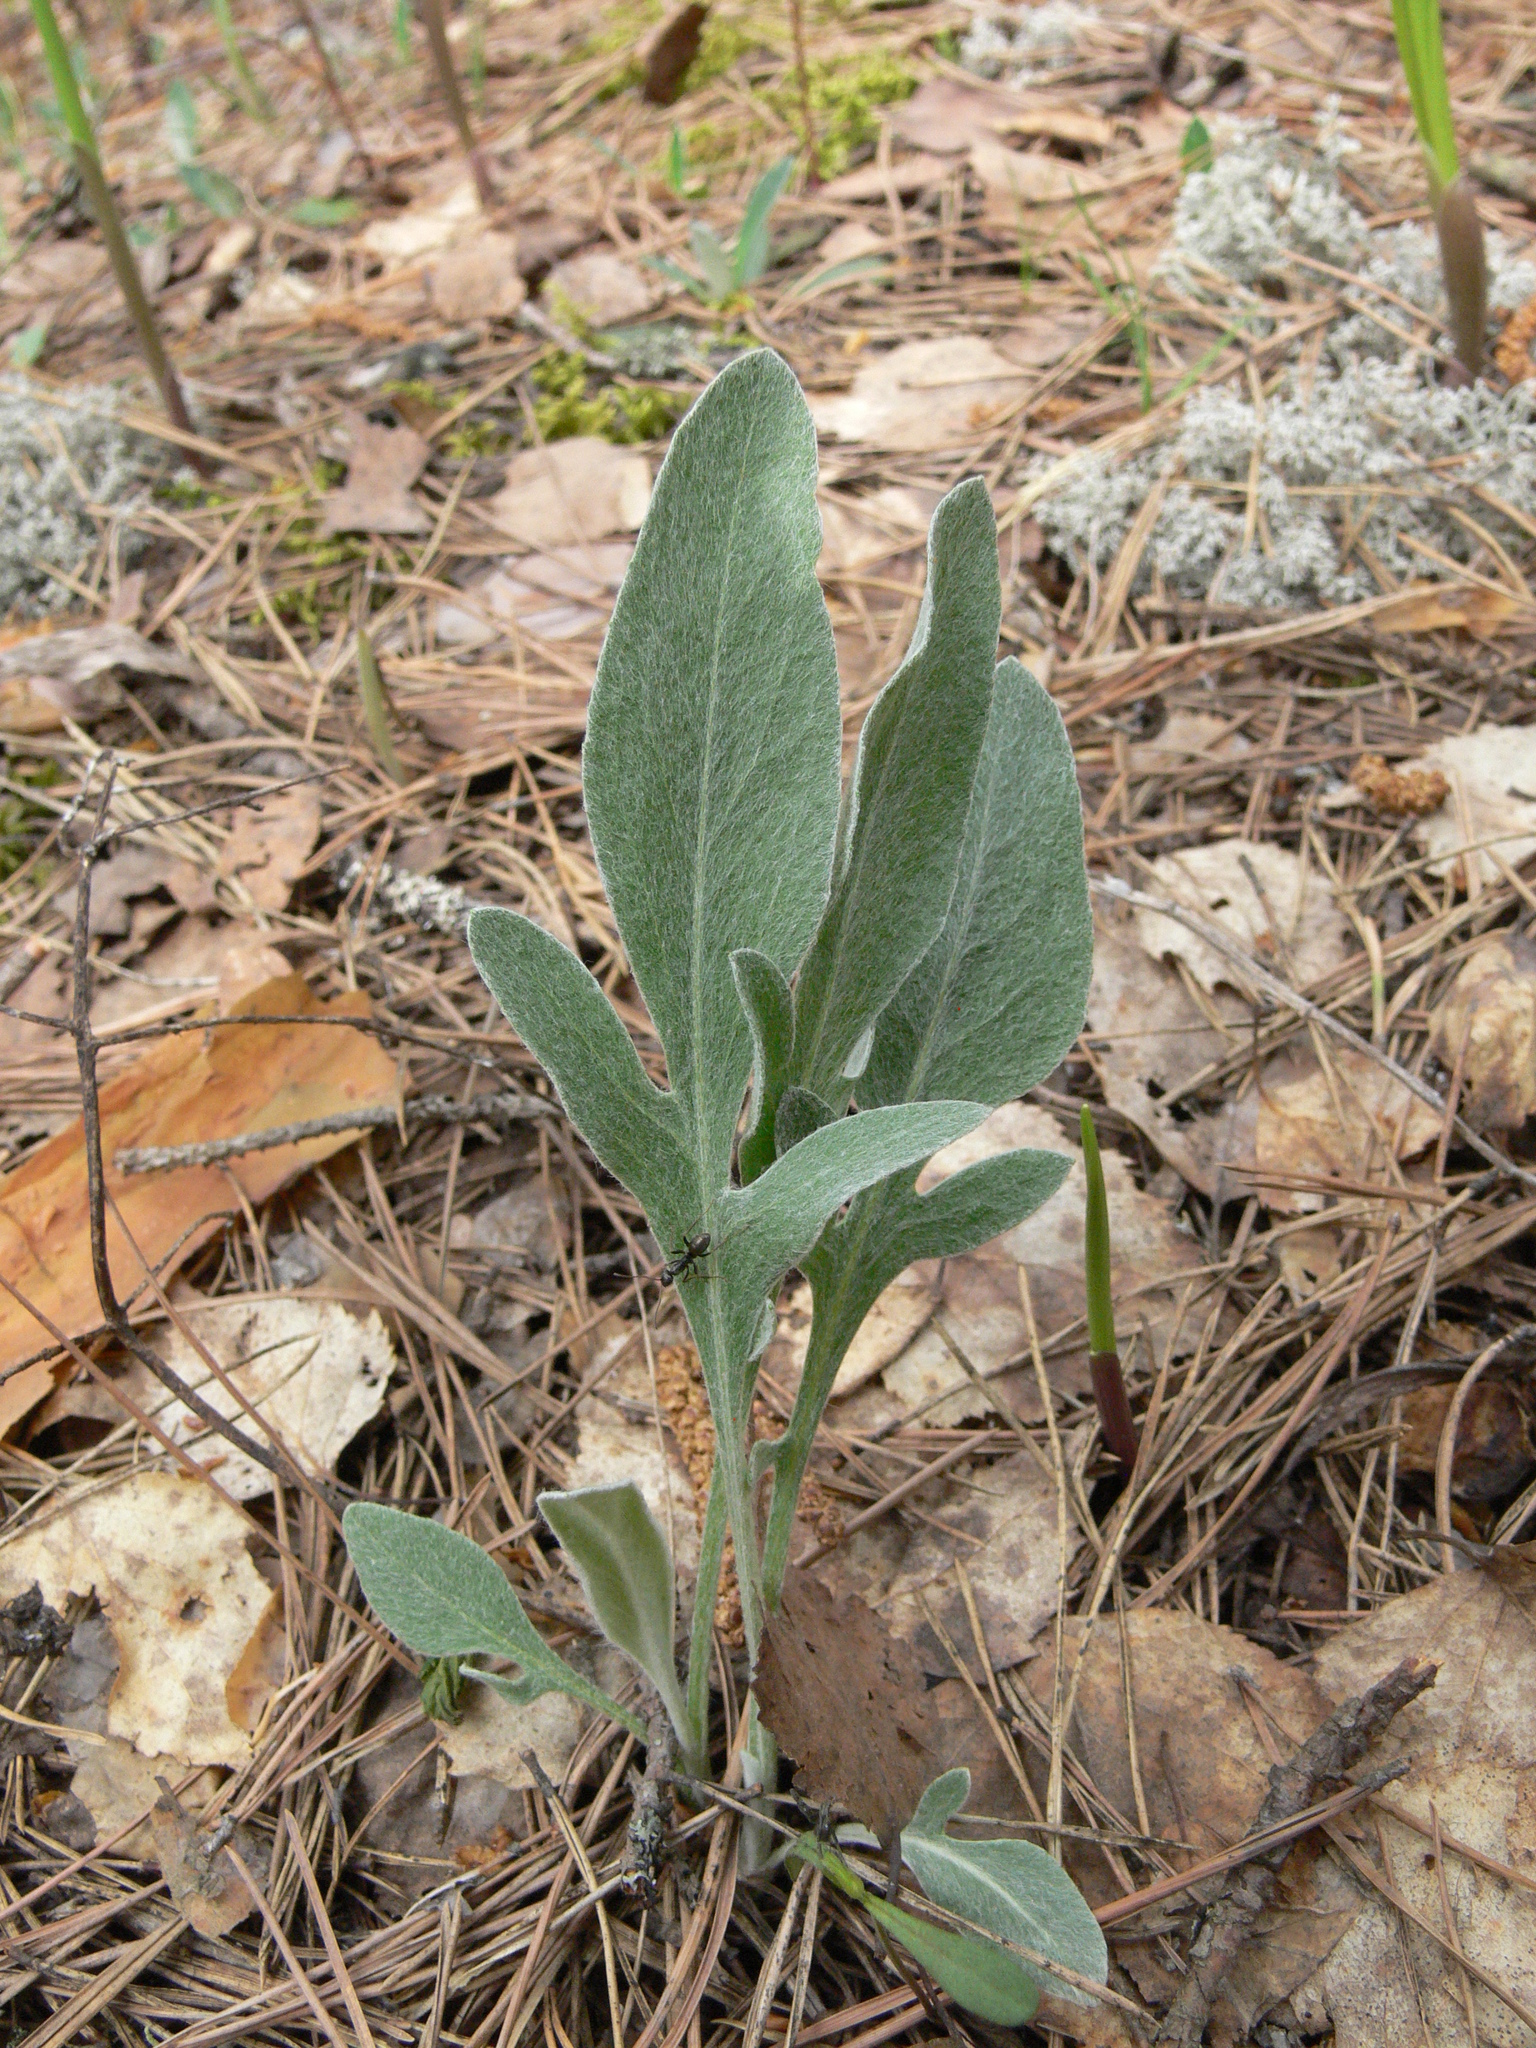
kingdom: Plantae
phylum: Tracheophyta
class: Magnoliopsida
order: Asterales
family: Asteraceae
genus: Psephellus
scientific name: Psephellus sumensis
